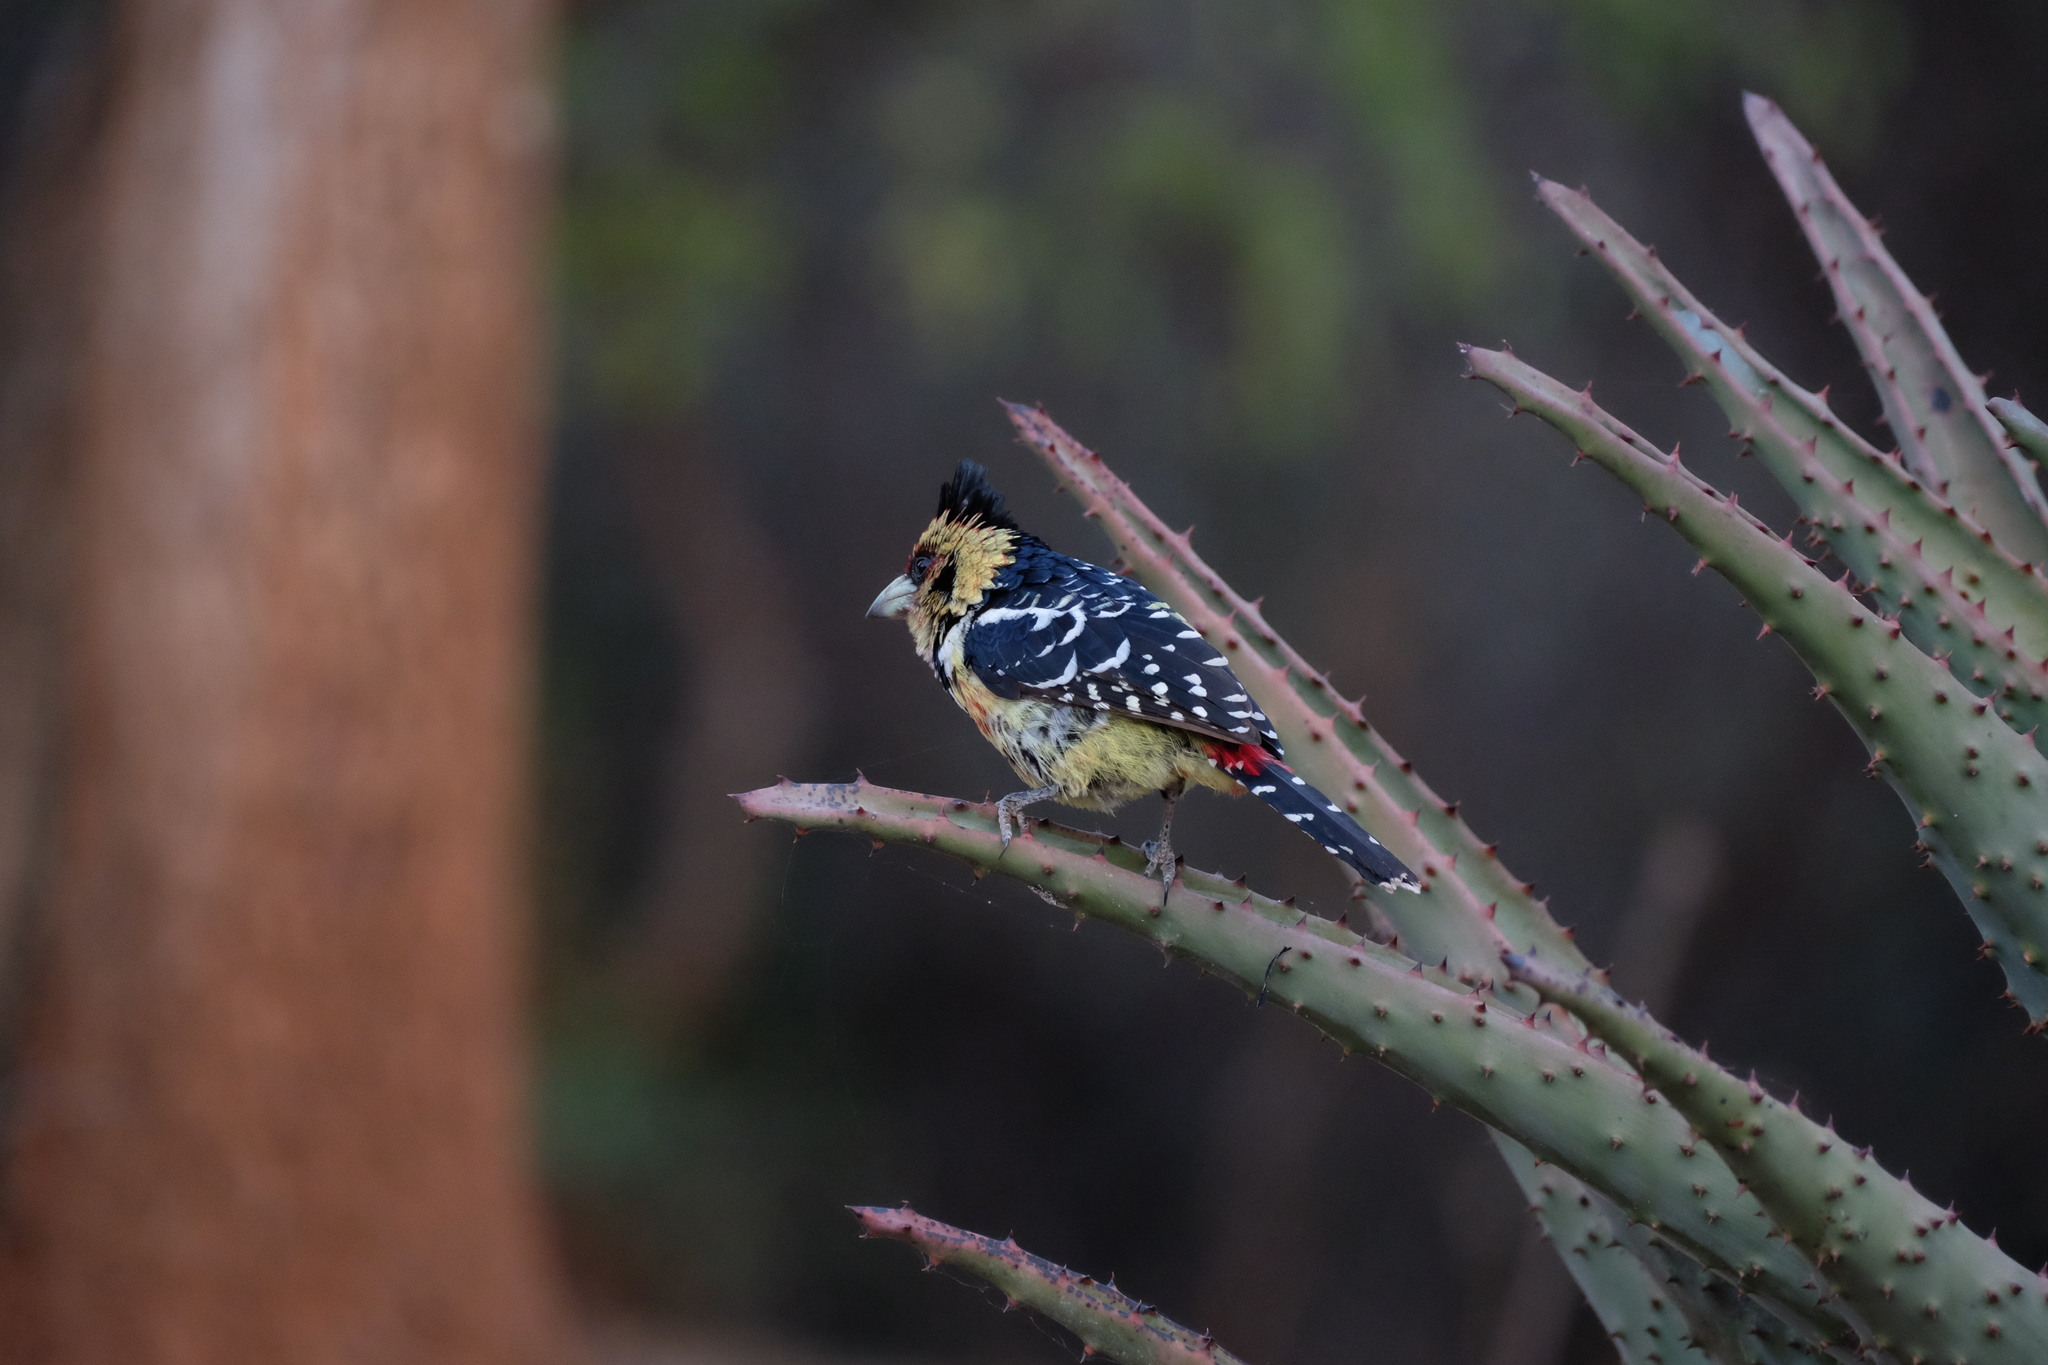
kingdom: Animalia
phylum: Chordata
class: Aves
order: Piciformes
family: Lybiidae
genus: Trachyphonus
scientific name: Trachyphonus vaillantii
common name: Crested barbet
